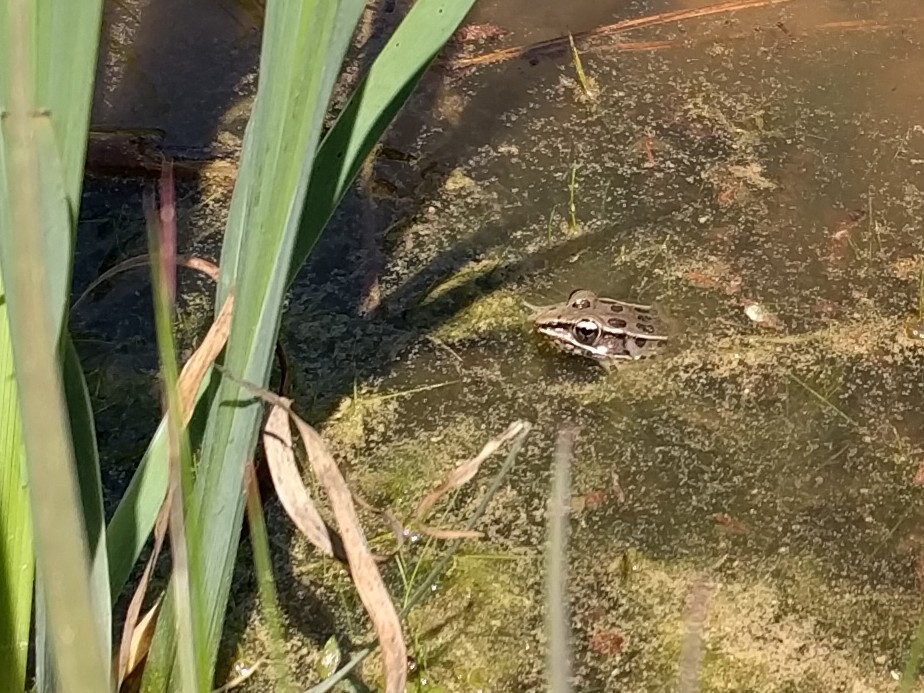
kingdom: Animalia
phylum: Chordata
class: Amphibia
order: Anura
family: Ranidae
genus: Lithobates
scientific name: Lithobates sphenocephalus
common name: Southern leopard frog
